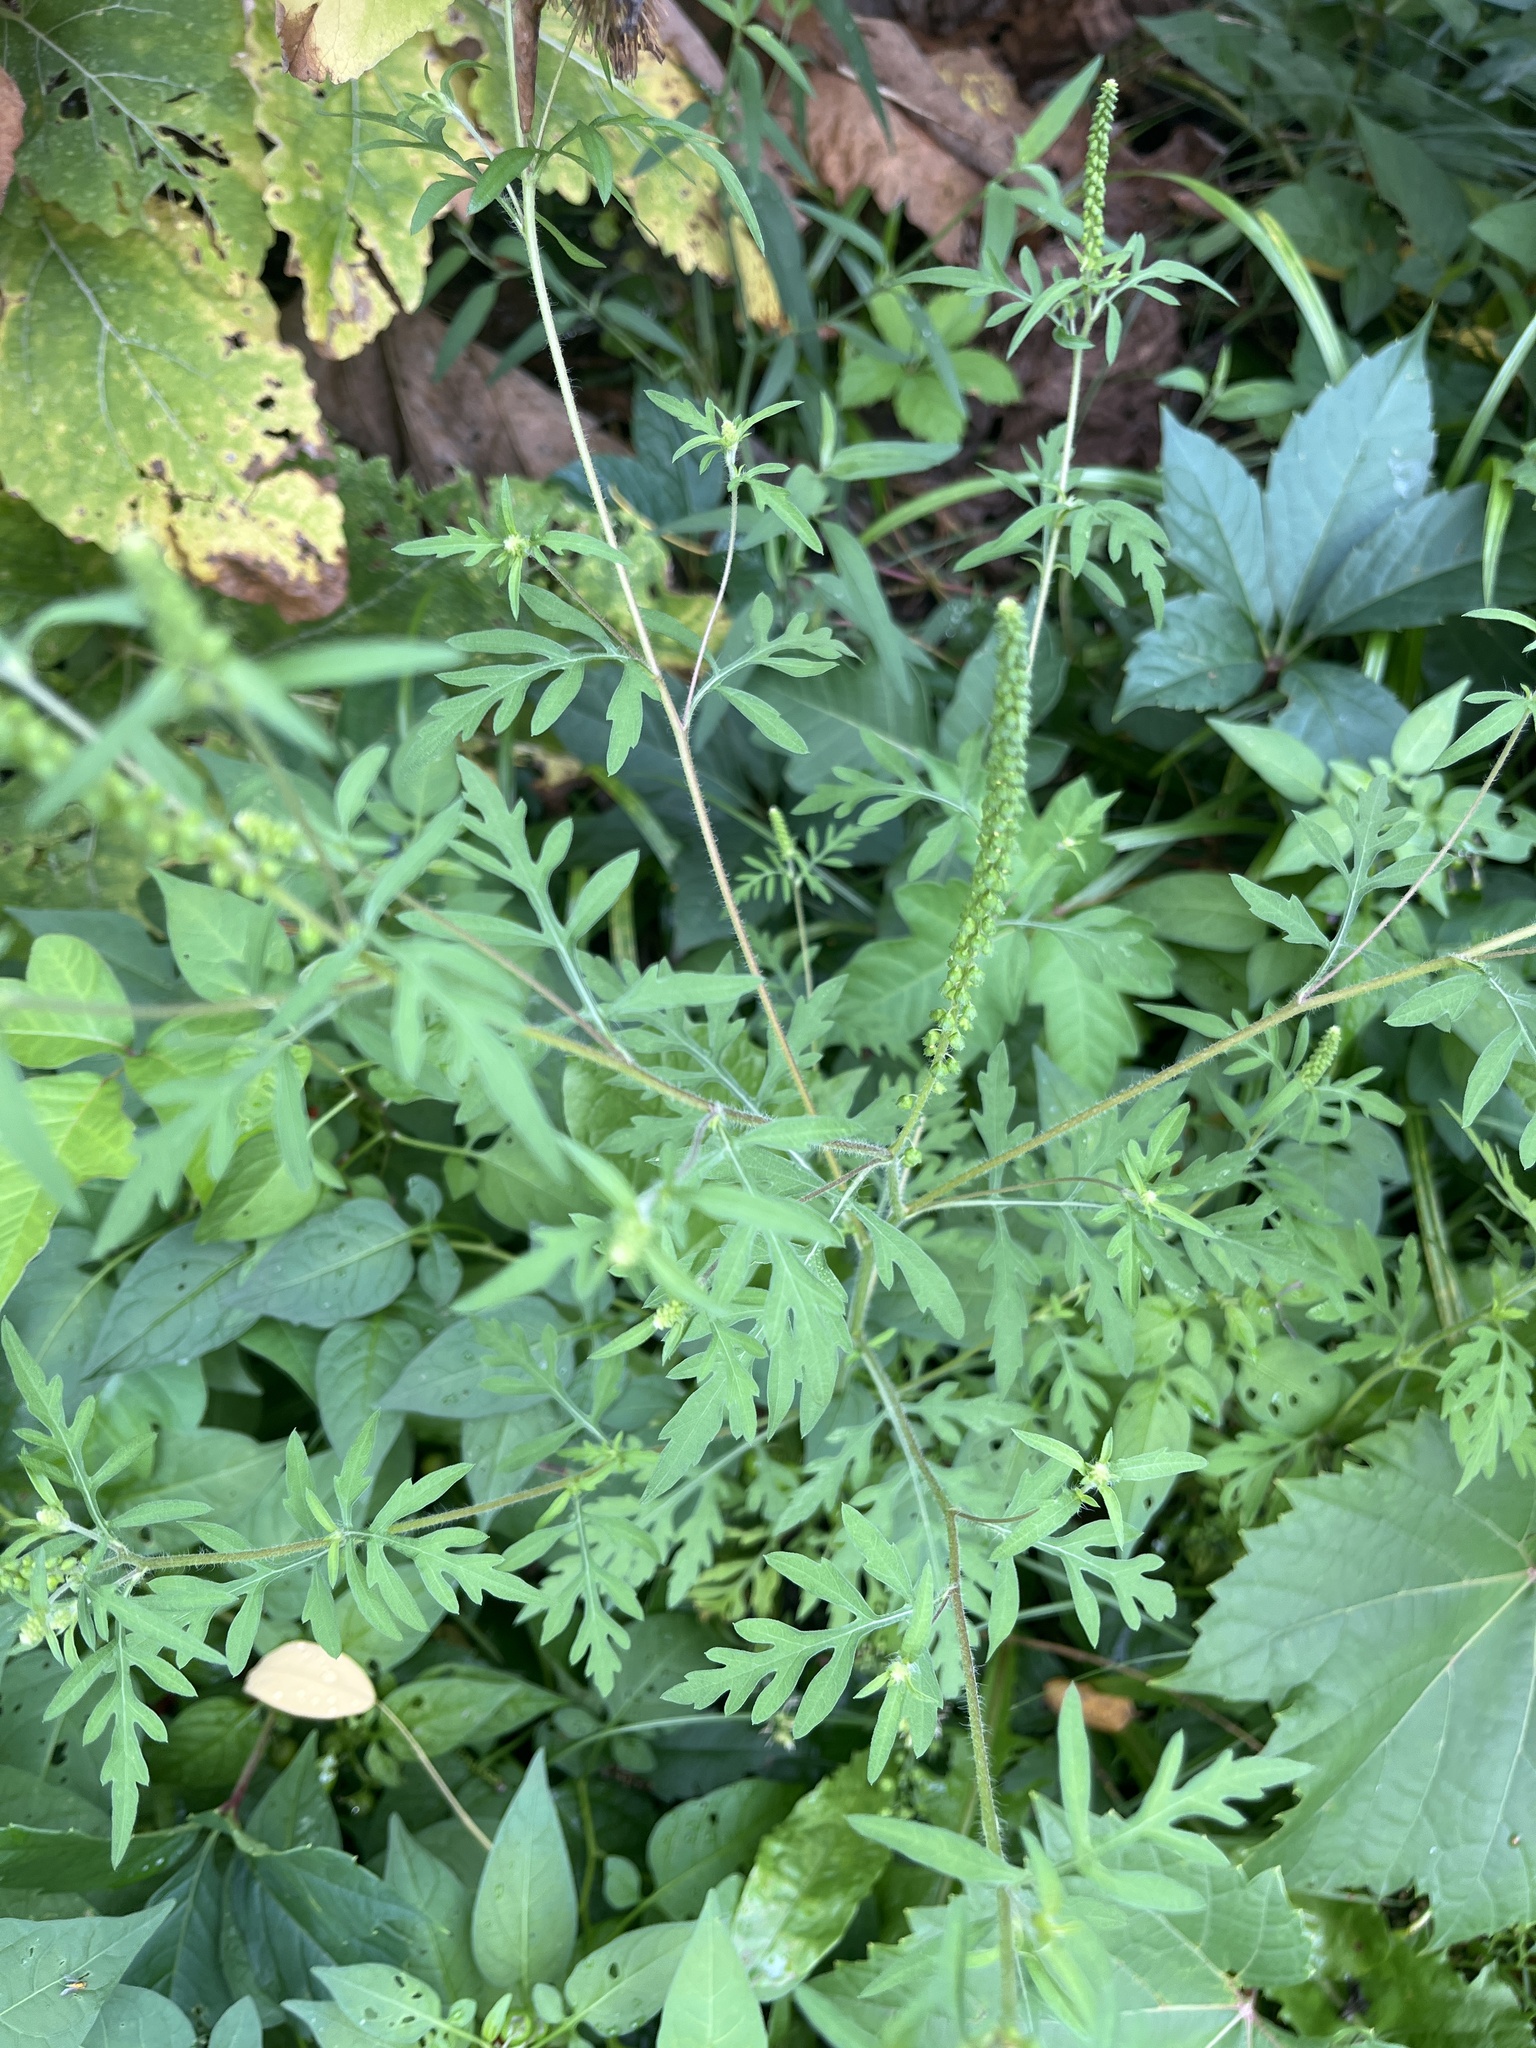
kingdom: Plantae
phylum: Tracheophyta
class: Magnoliopsida
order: Asterales
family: Asteraceae
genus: Ambrosia
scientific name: Ambrosia artemisiifolia
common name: Annual ragweed
